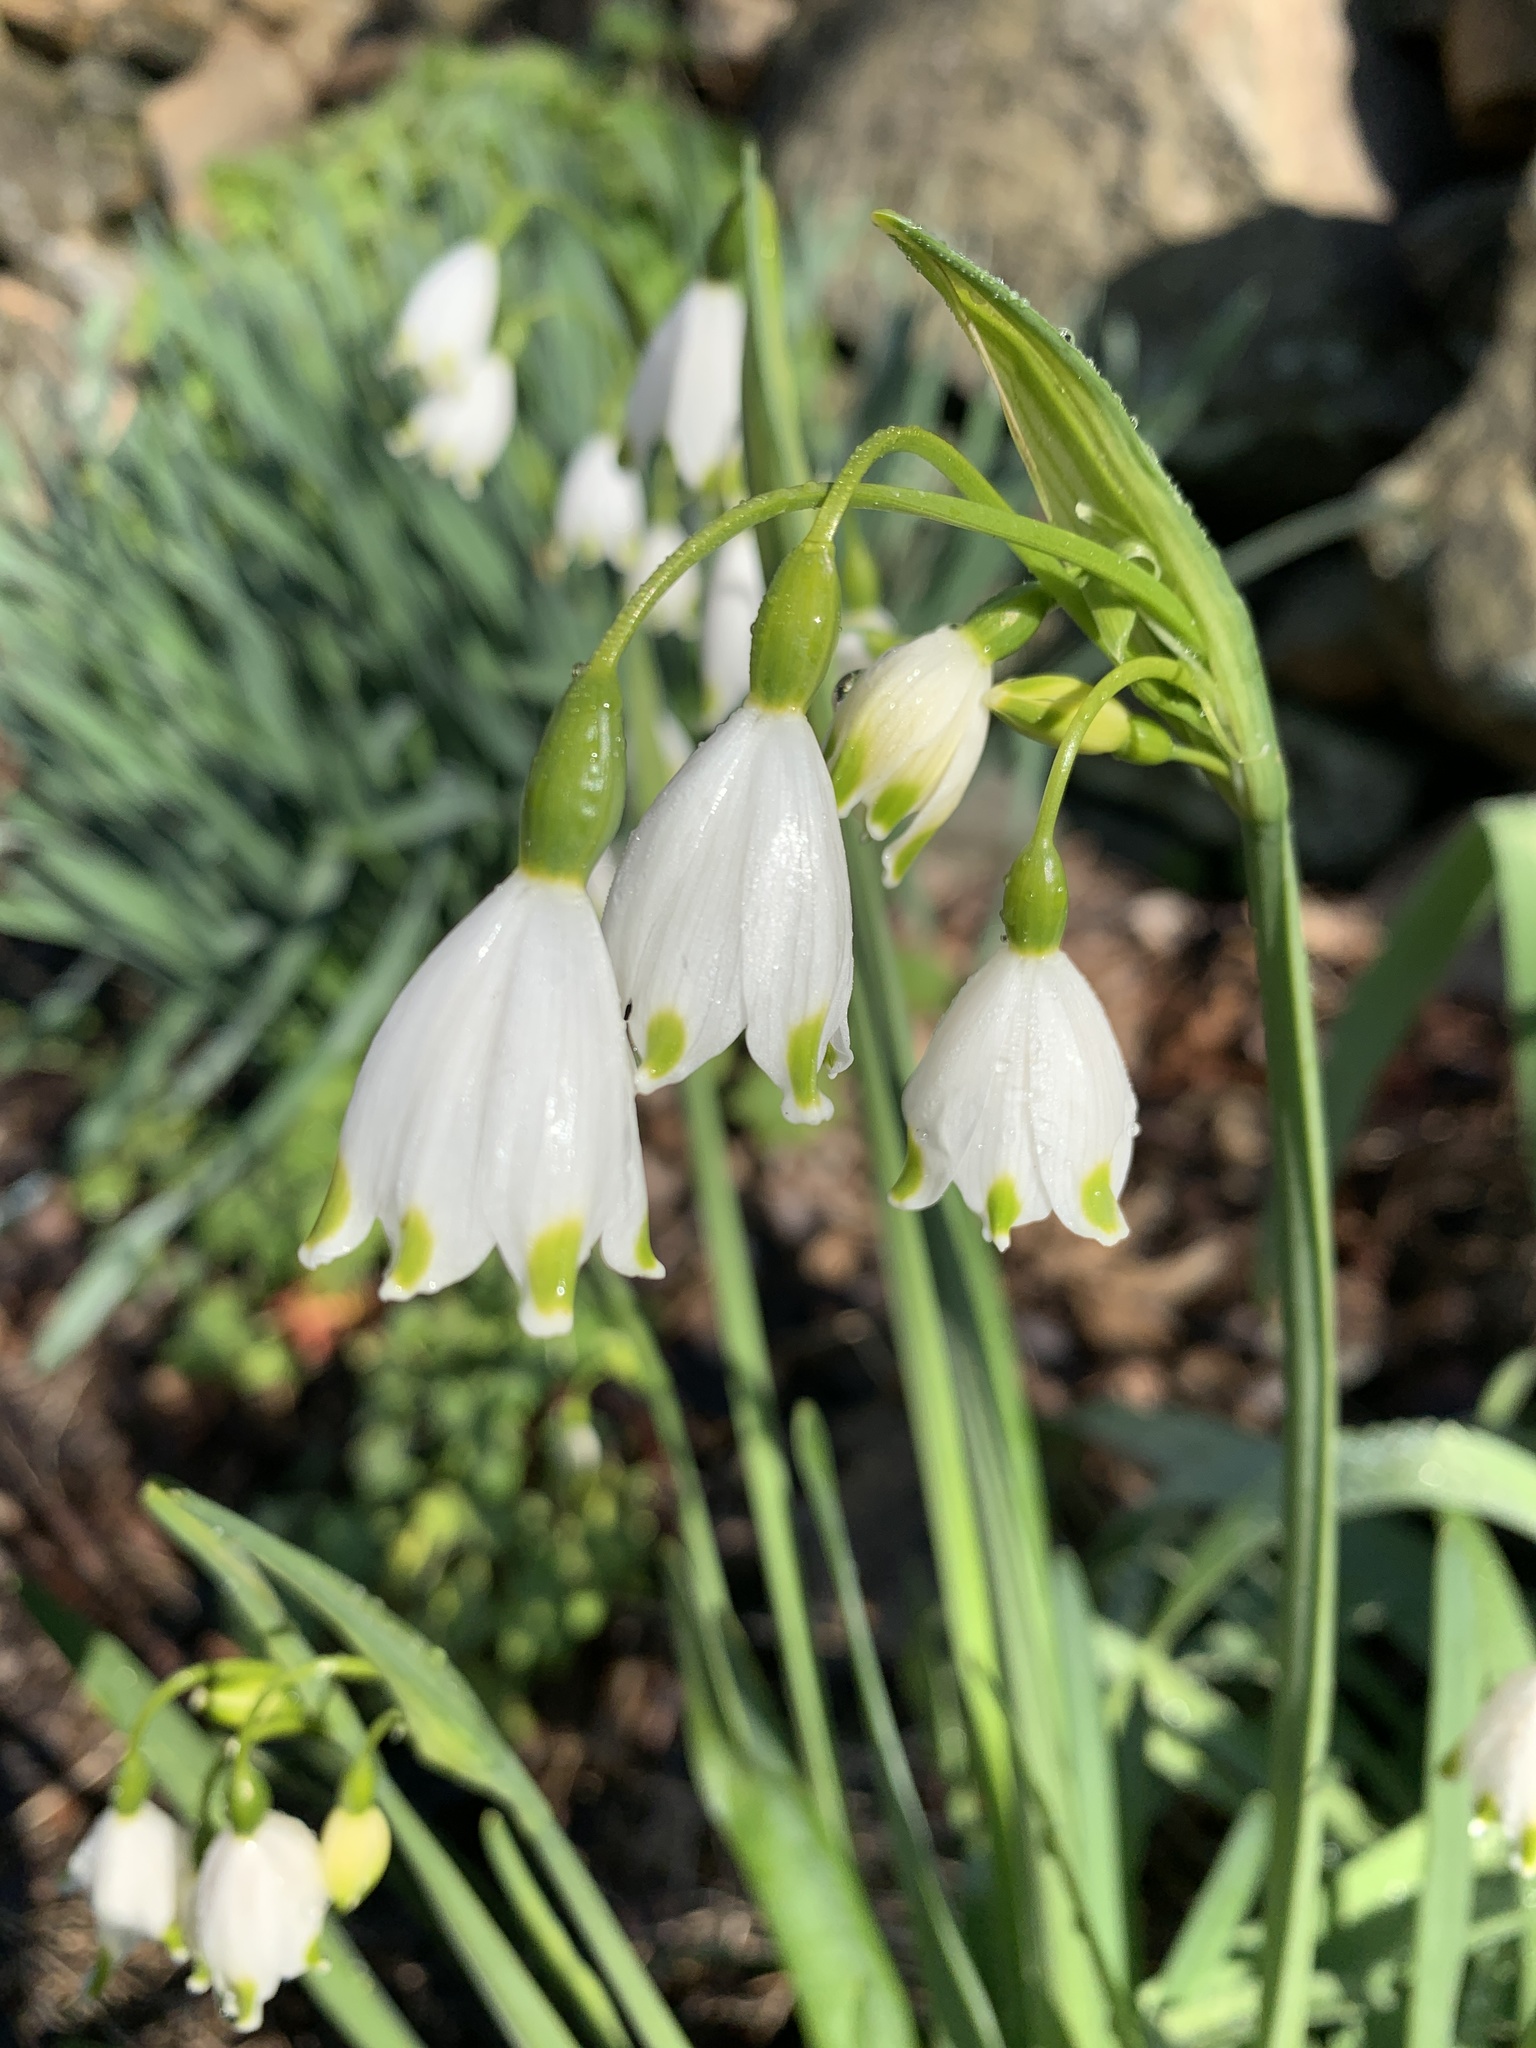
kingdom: Plantae
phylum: Tracheophyta
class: Liliopsida
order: Asparagales
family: Amaryllidaceae
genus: Leucojum
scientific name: Leucojum aestivum
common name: Summer snowflake
